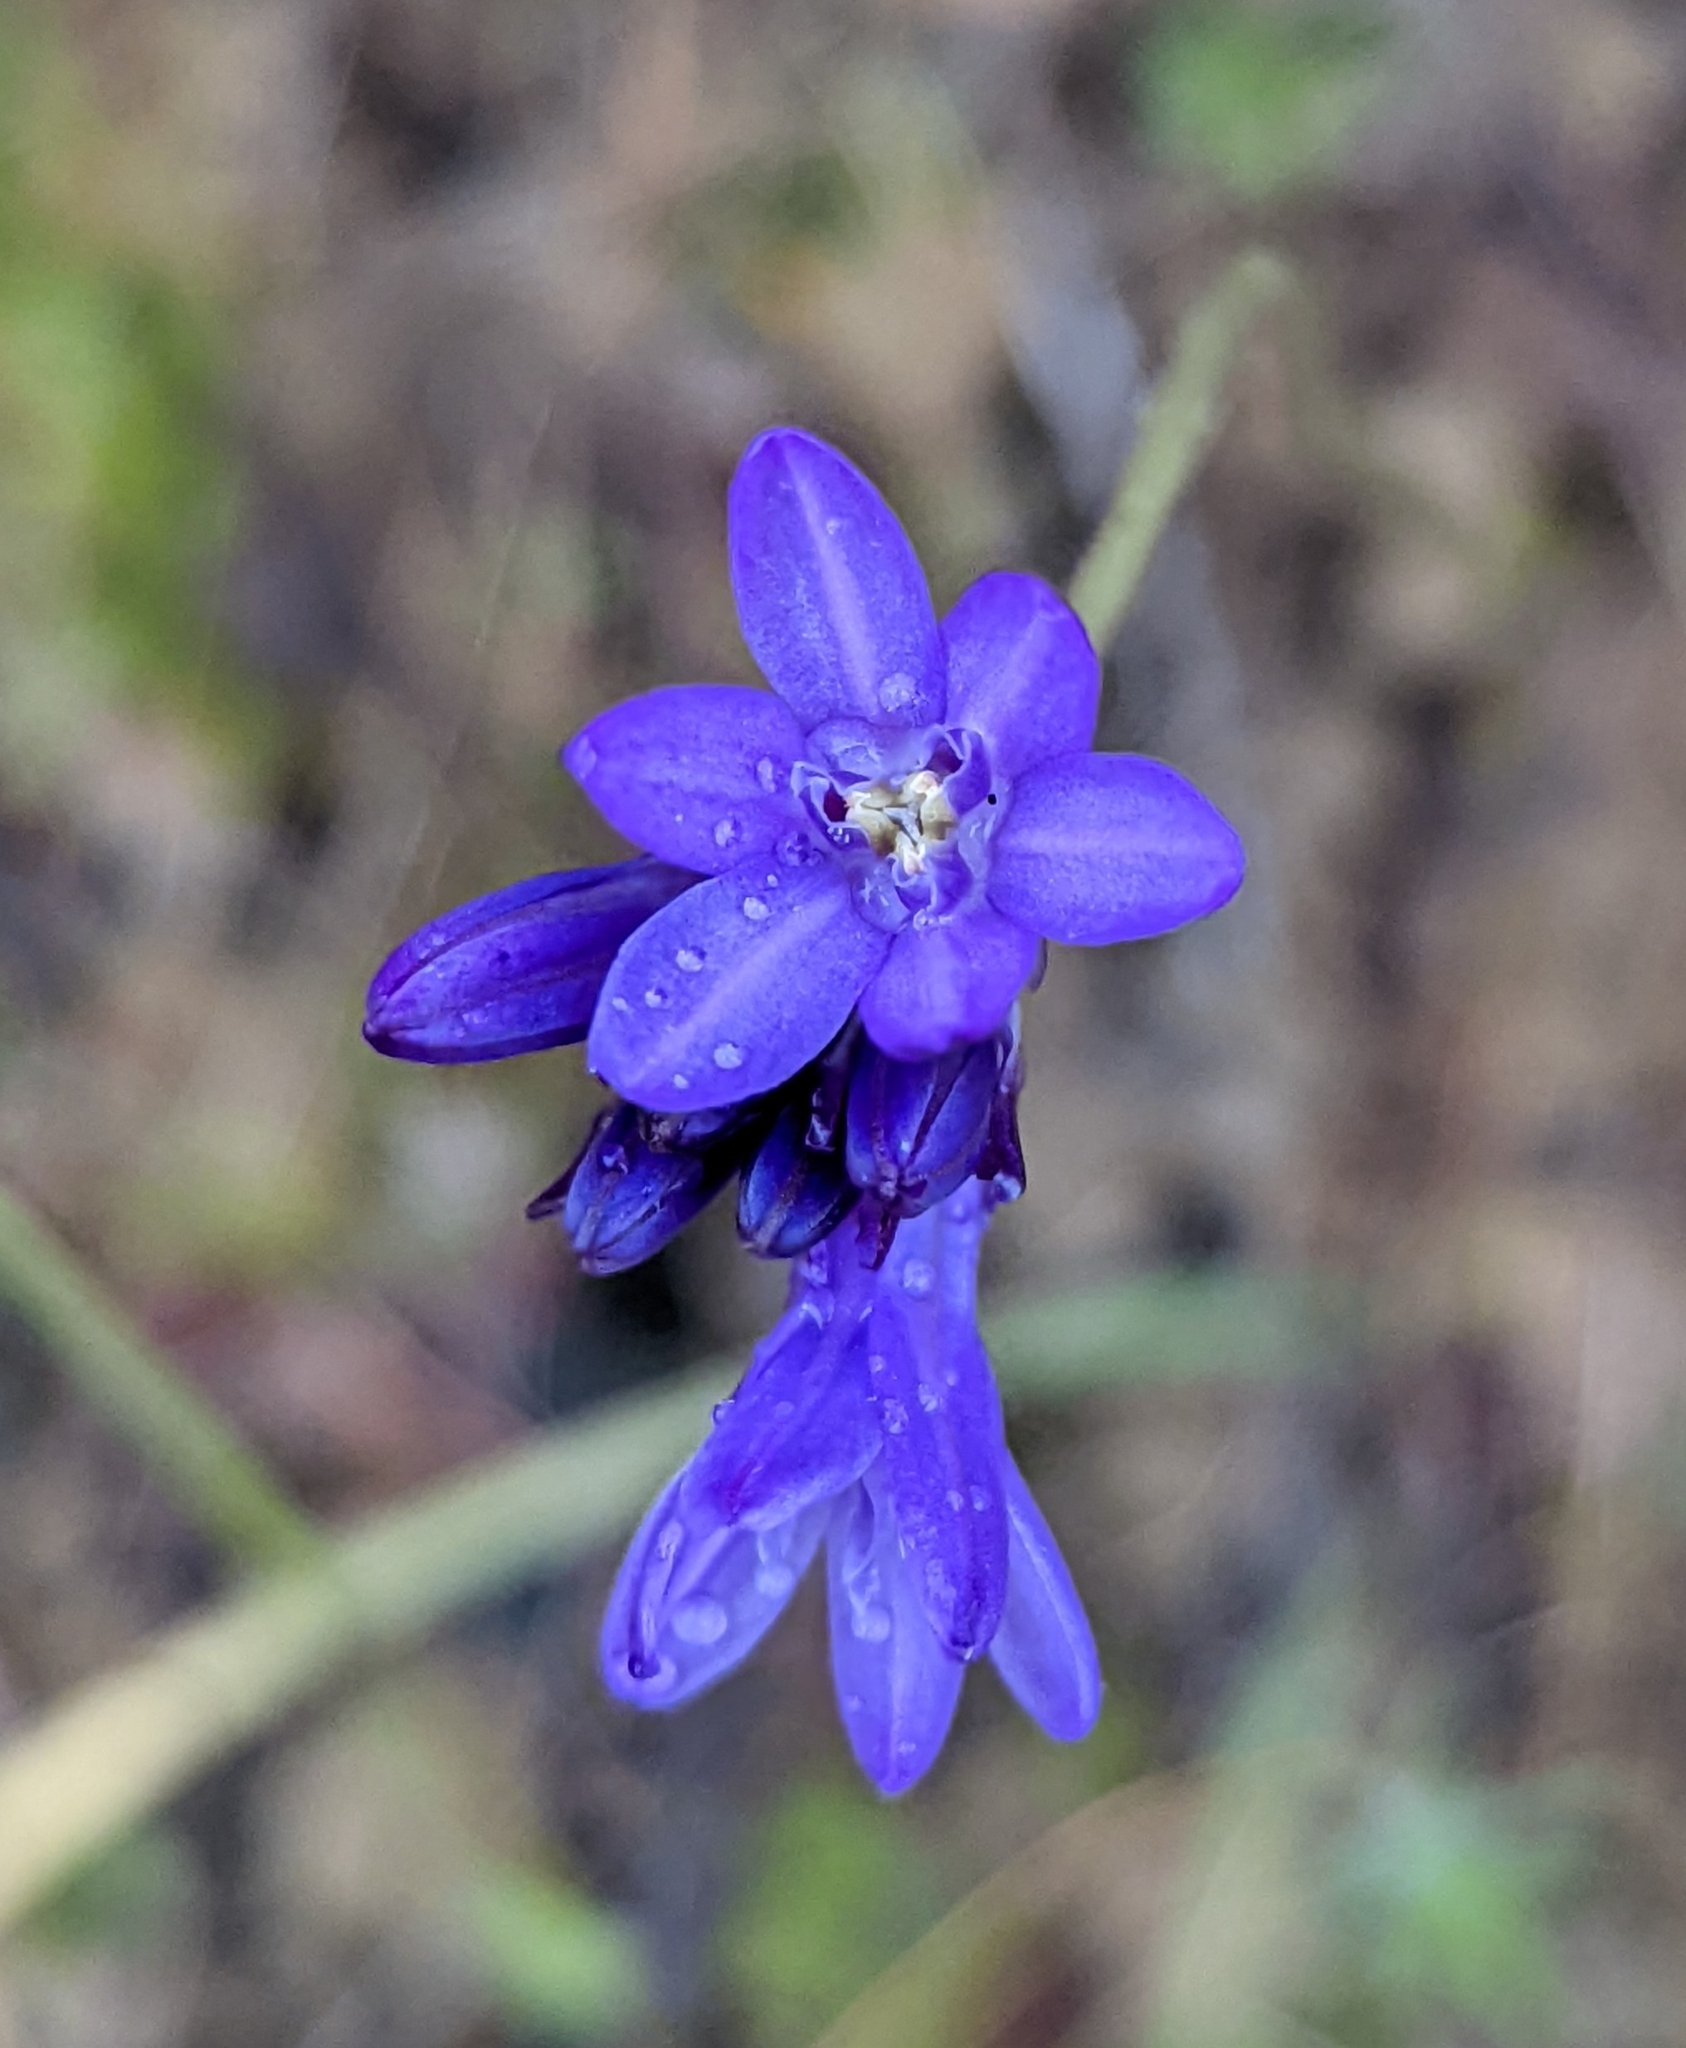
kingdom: Plantae
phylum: Tracheophyta
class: Liliopsida
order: Asparagales
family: Asparagaceae
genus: Dichelostemma
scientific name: Dichelostemma congestum
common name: Fork-tooth ookow
